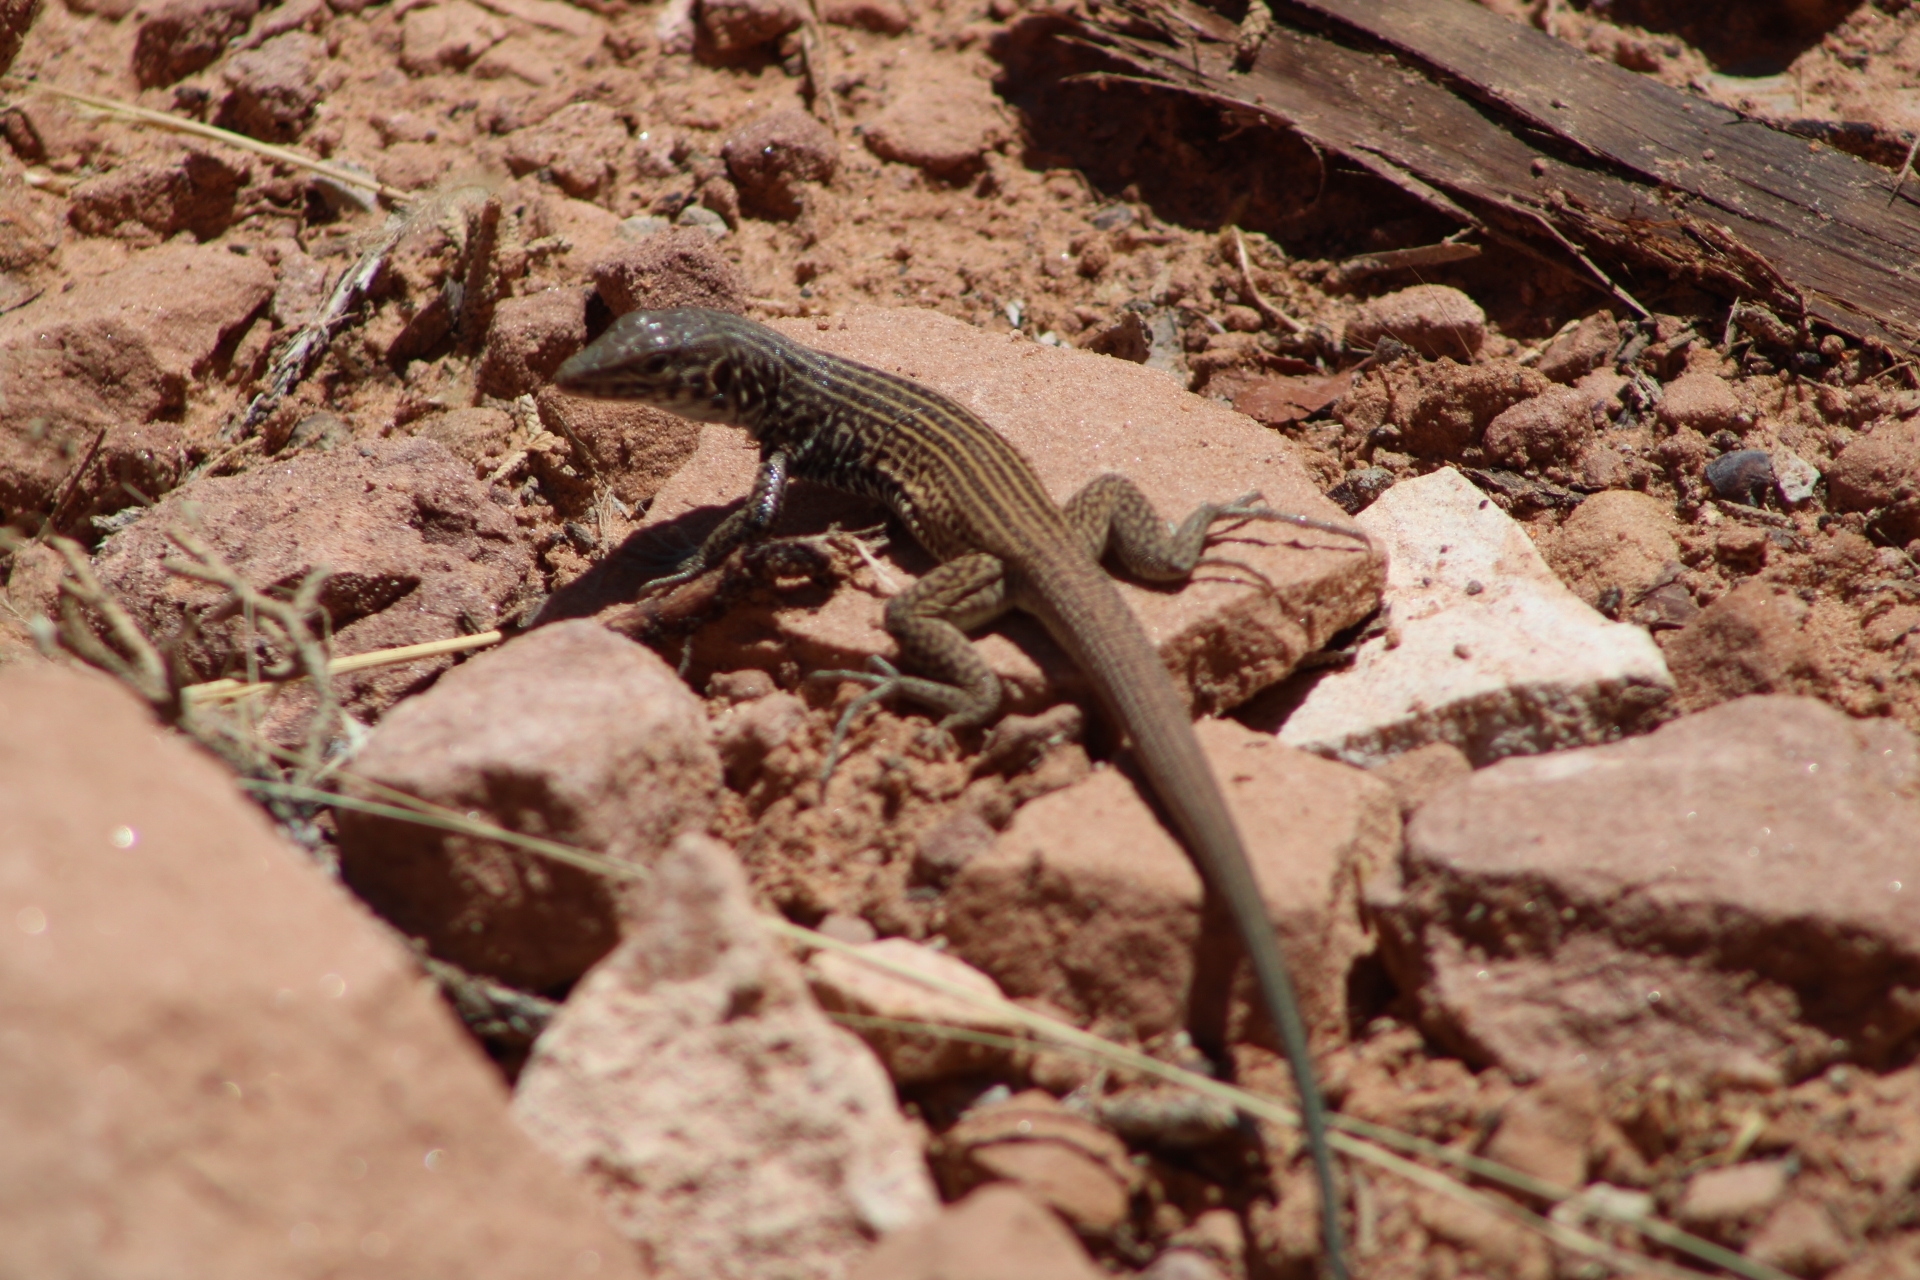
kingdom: Animalia
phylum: Chordata
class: Squamata
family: Teiidae
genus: Aspidoscelis
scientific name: Aspidoscelis tigris
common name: Tiger whiptail
